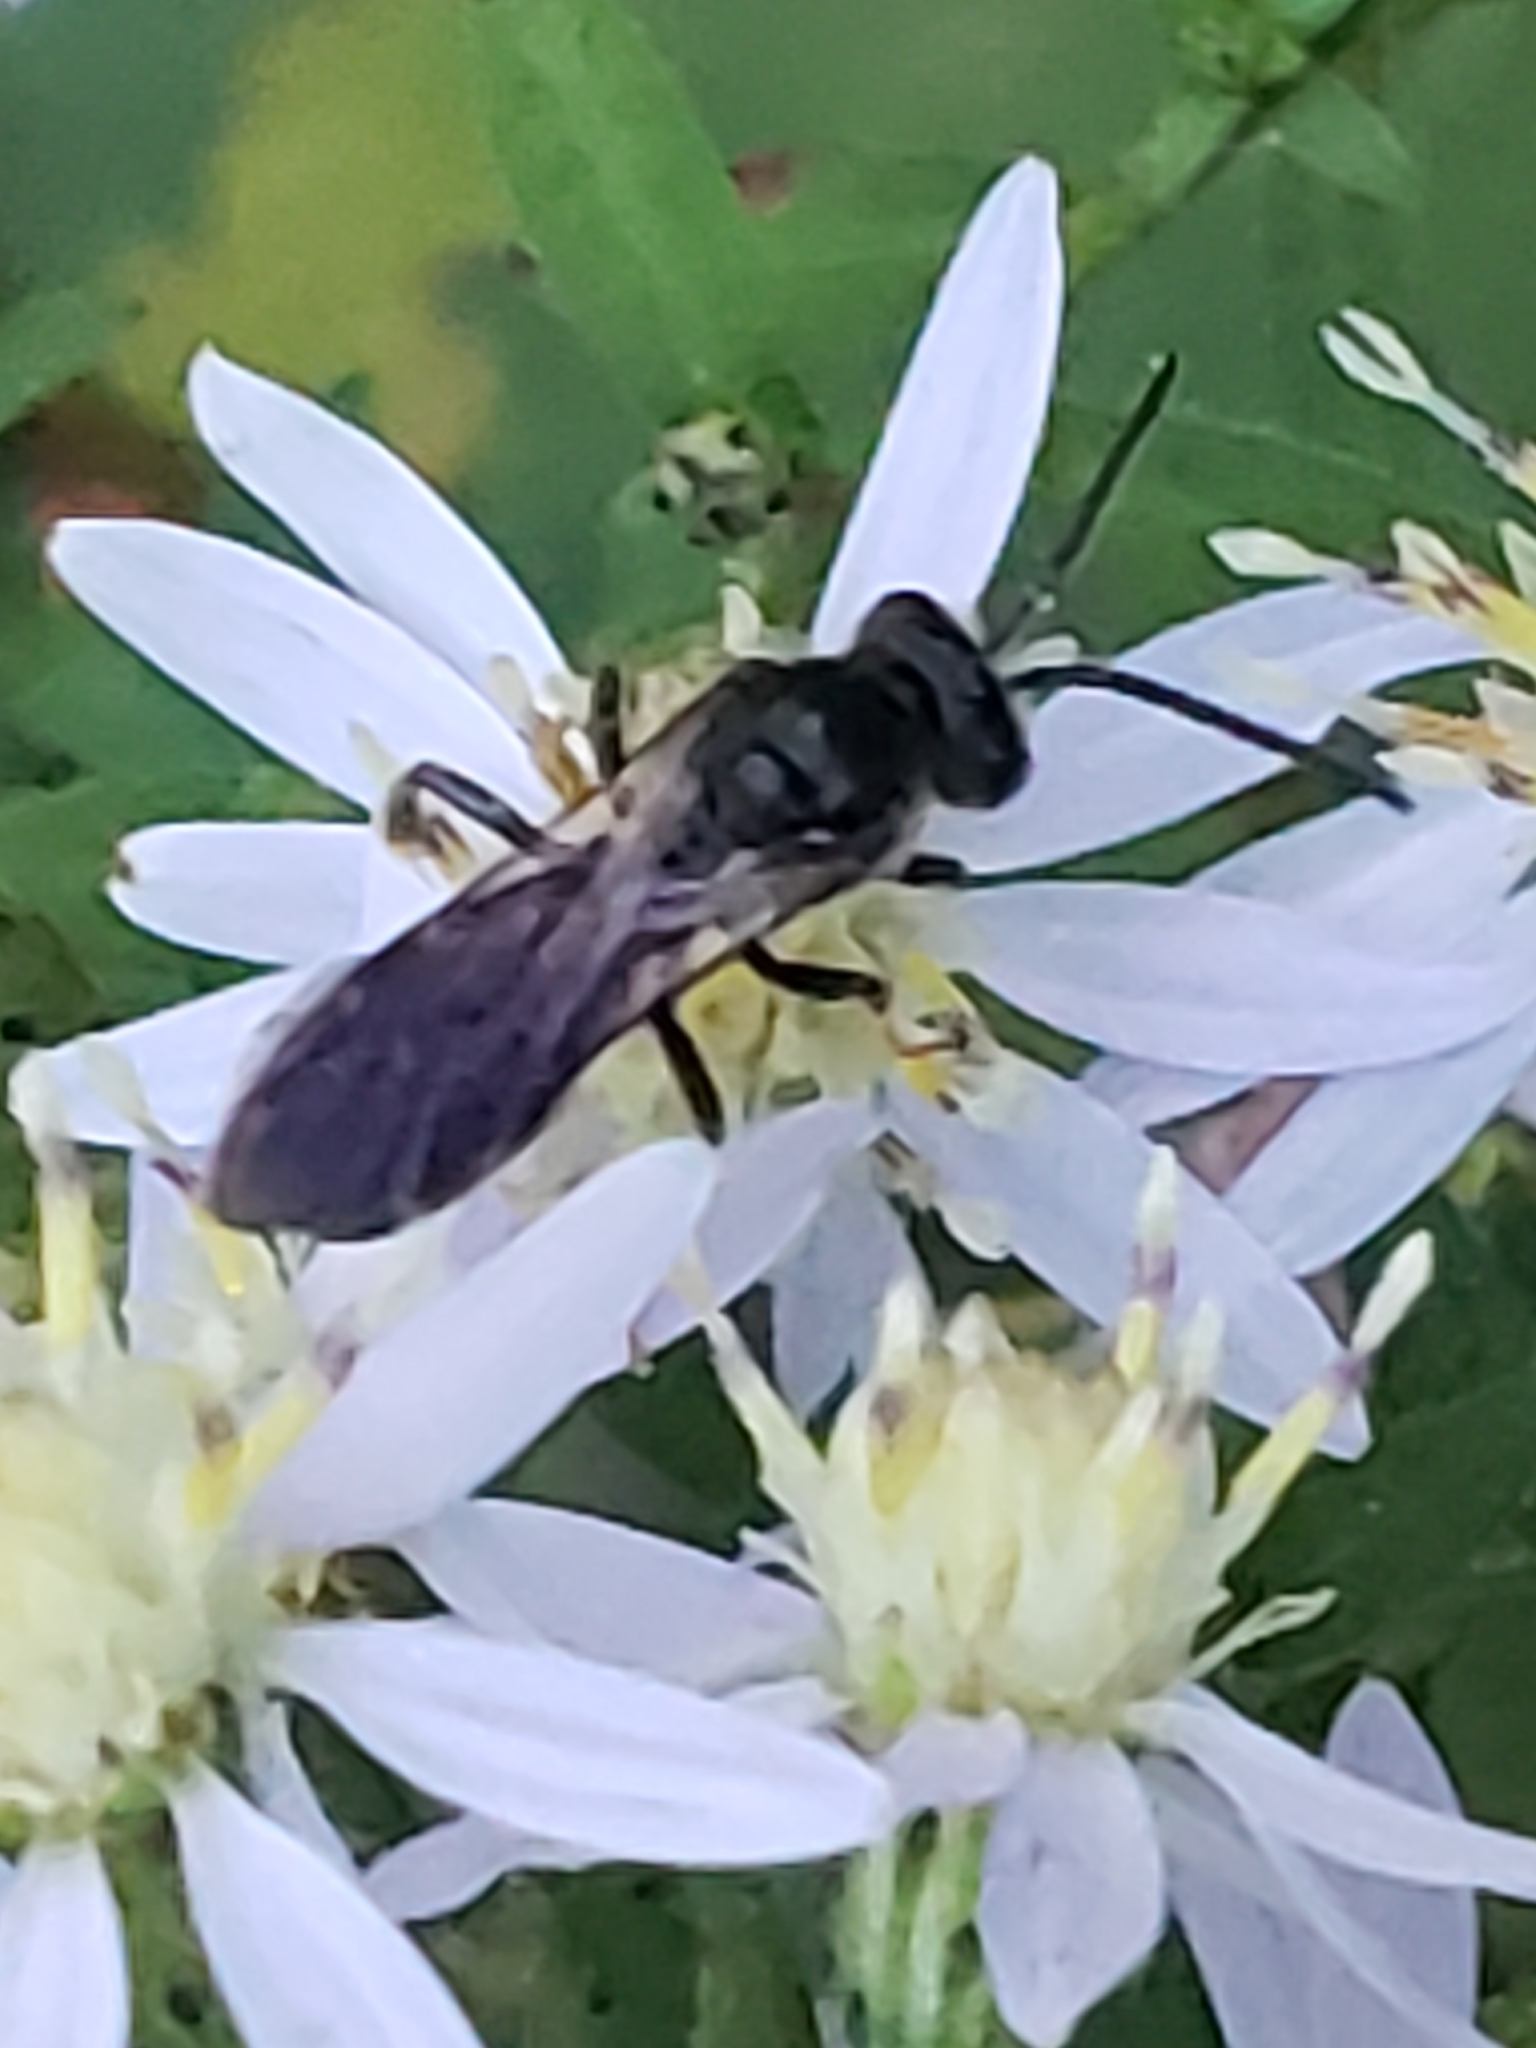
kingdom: Animalia
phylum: Arthropoda
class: Insecta
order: Hymenoptera
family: Halictidae
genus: Lasioglossum
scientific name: Lasioglossum fuscipenne
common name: Brown-winged sweat bee
